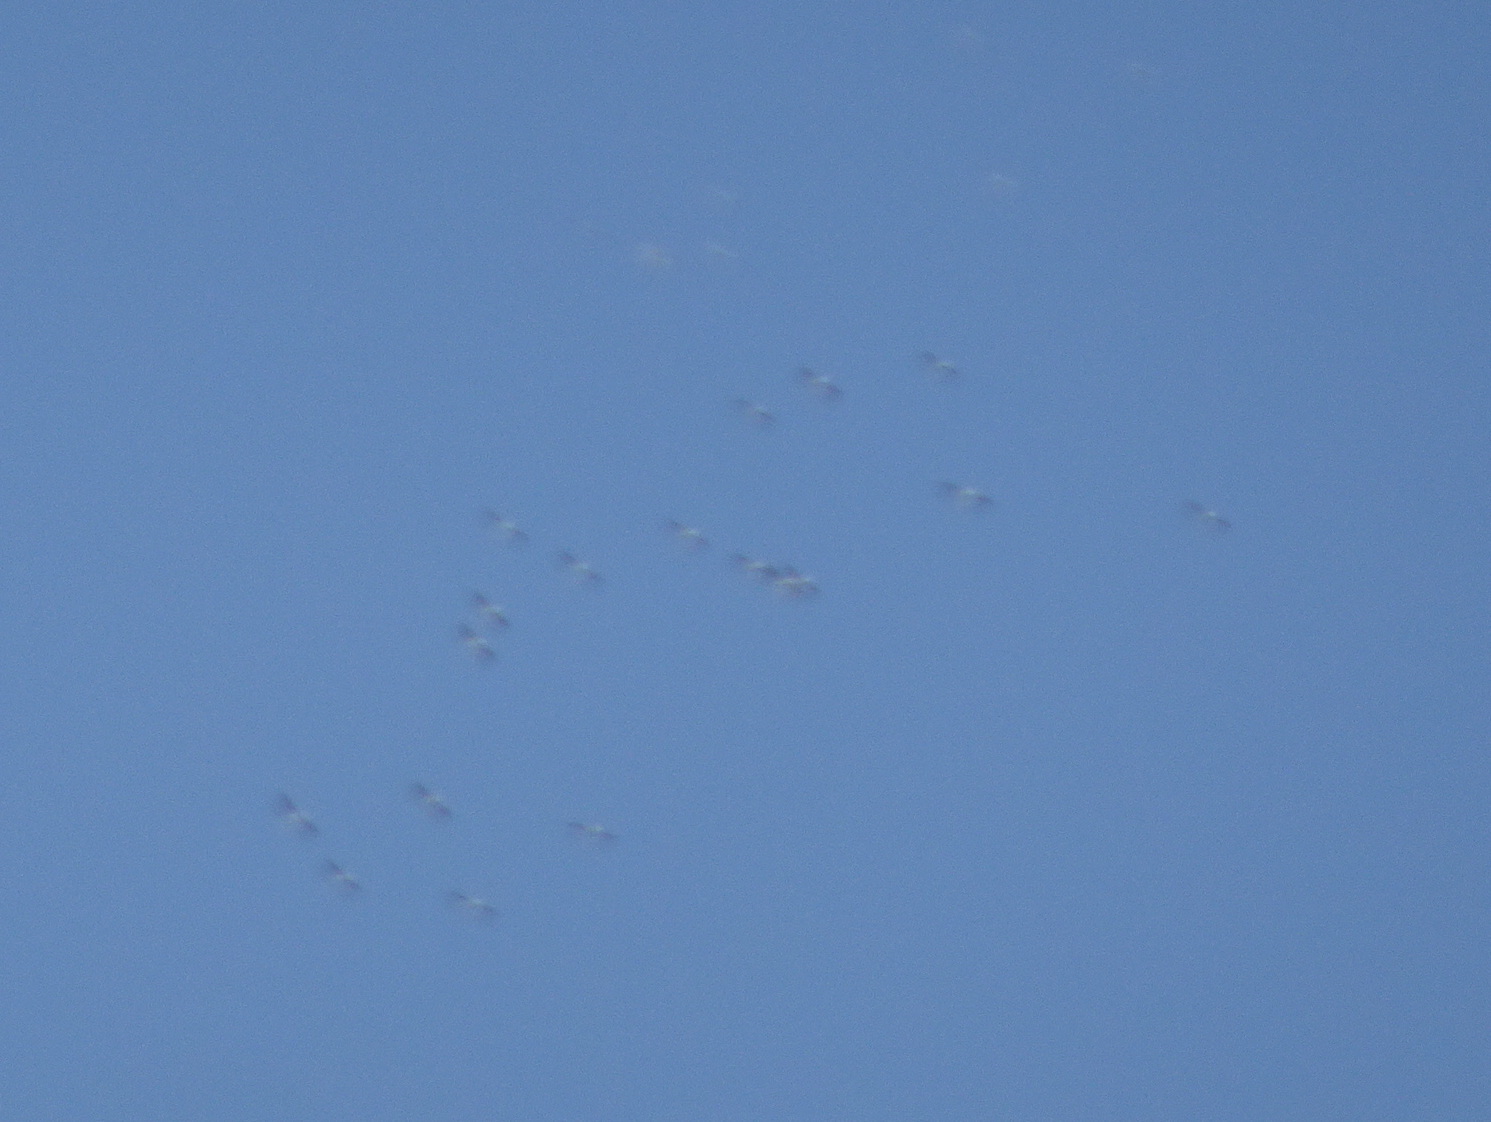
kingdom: Animalia
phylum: Chordata
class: Aves
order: Pelecaniformes
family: Pelecanidae
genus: Pelecanus
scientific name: Pelecanus erythrorhynchos
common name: American white pelican
